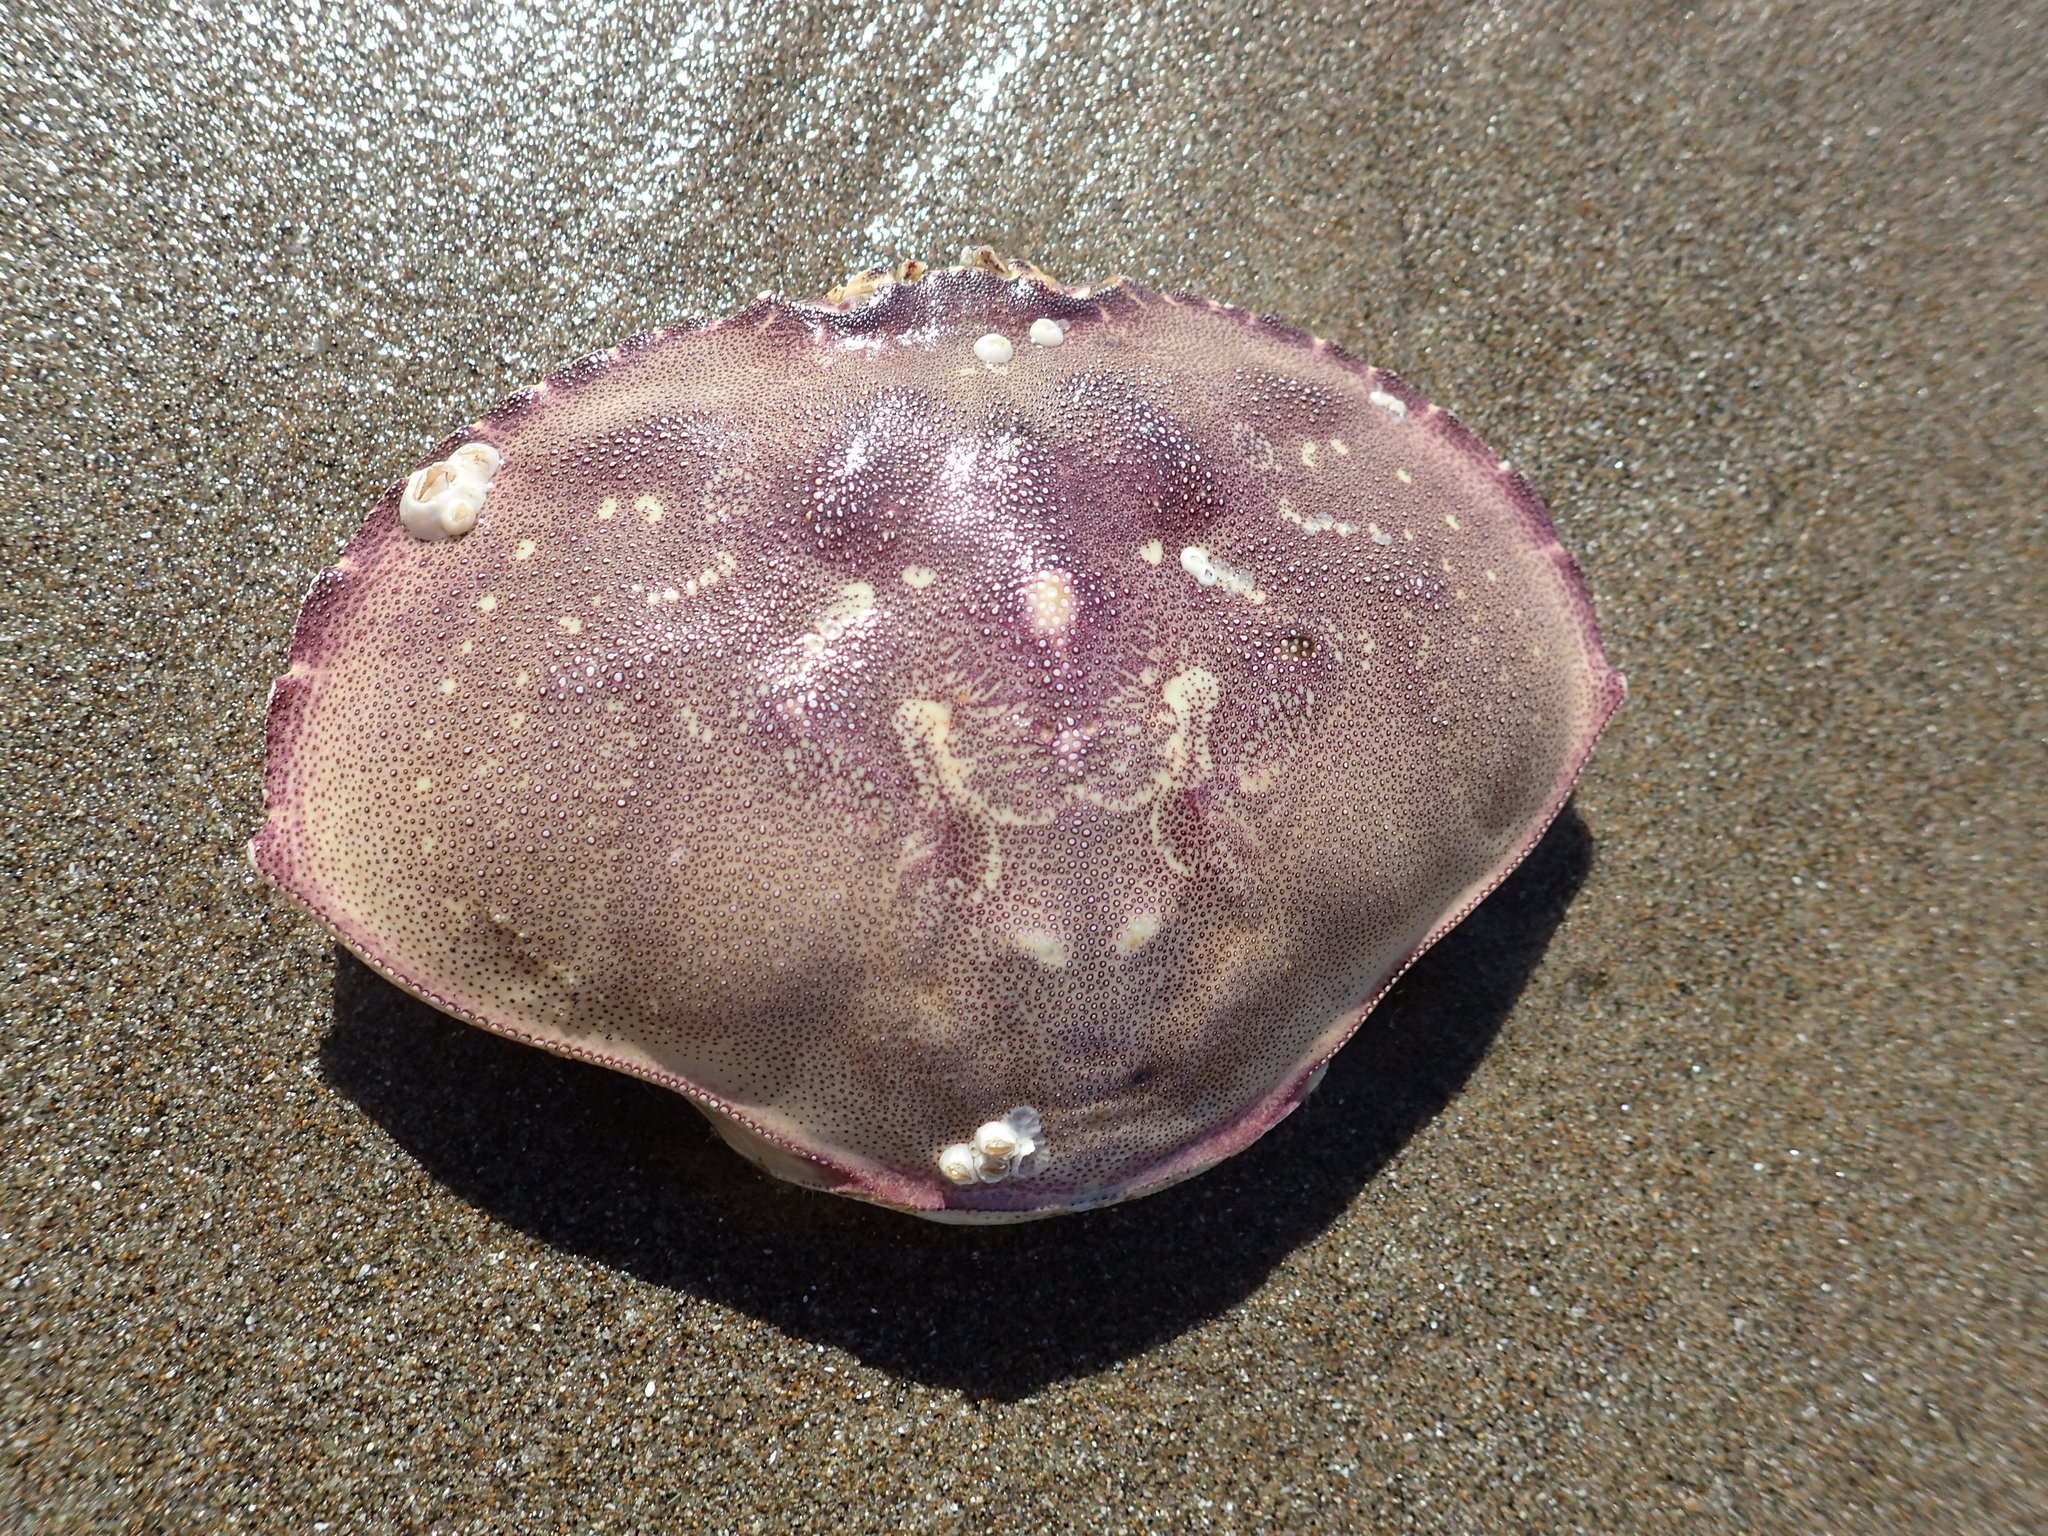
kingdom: Animalia
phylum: Arthropoda
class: Malacostraca
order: Decapoda
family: Cancridae
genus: Metacarcinus
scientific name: Metacarcinus magister
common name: Californian crab
